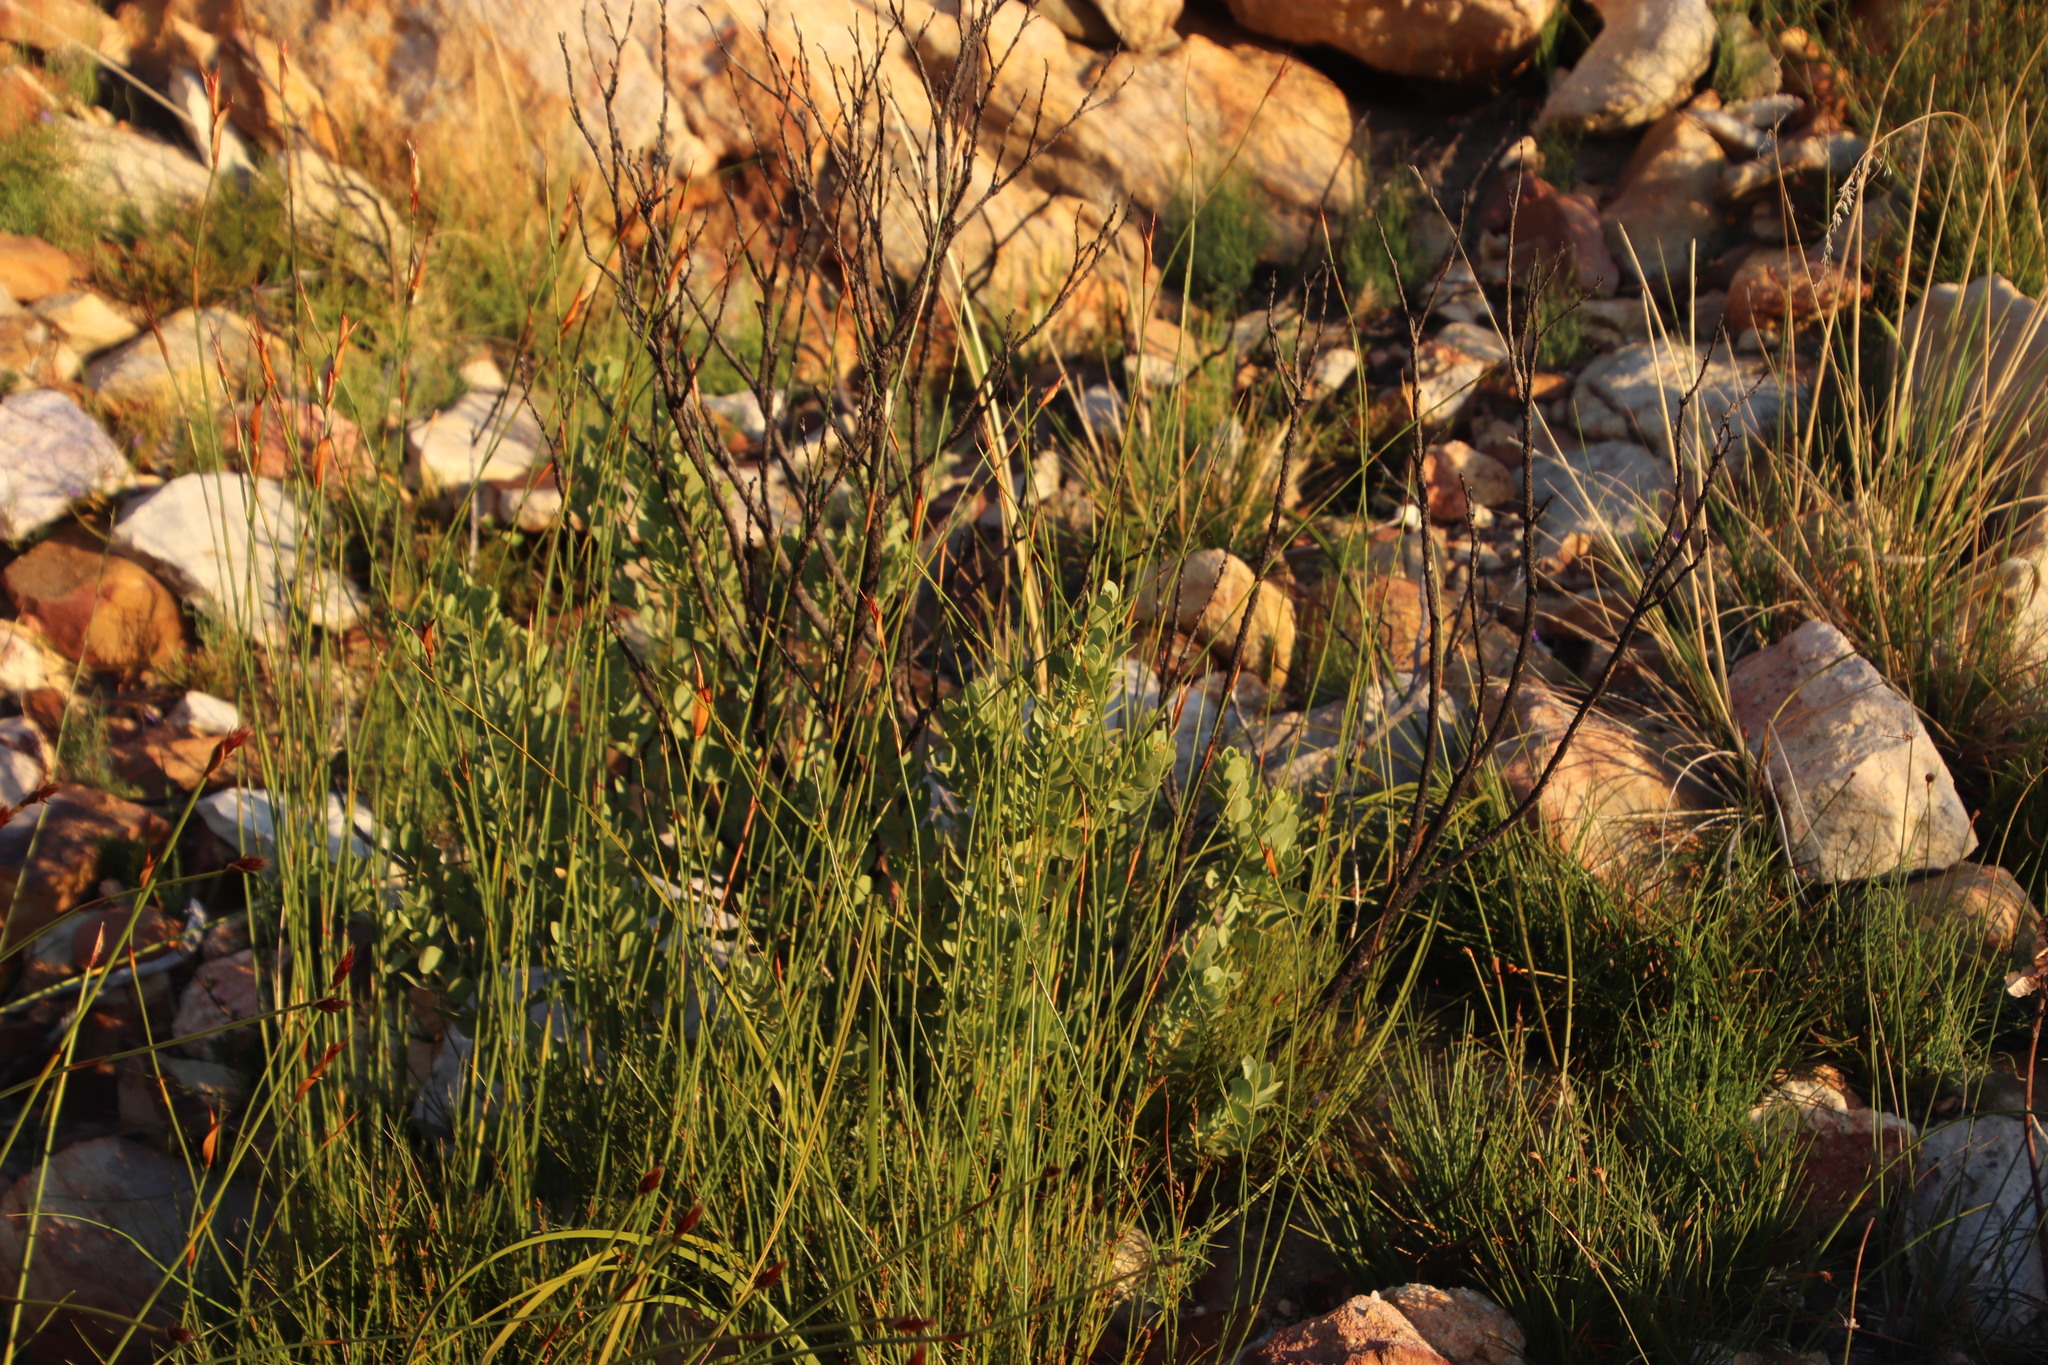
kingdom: Plantae
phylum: Tracheophyta
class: Magnoliopsida
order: Santalales
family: Santalaceae
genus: Osyris
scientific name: Osyris compressa
